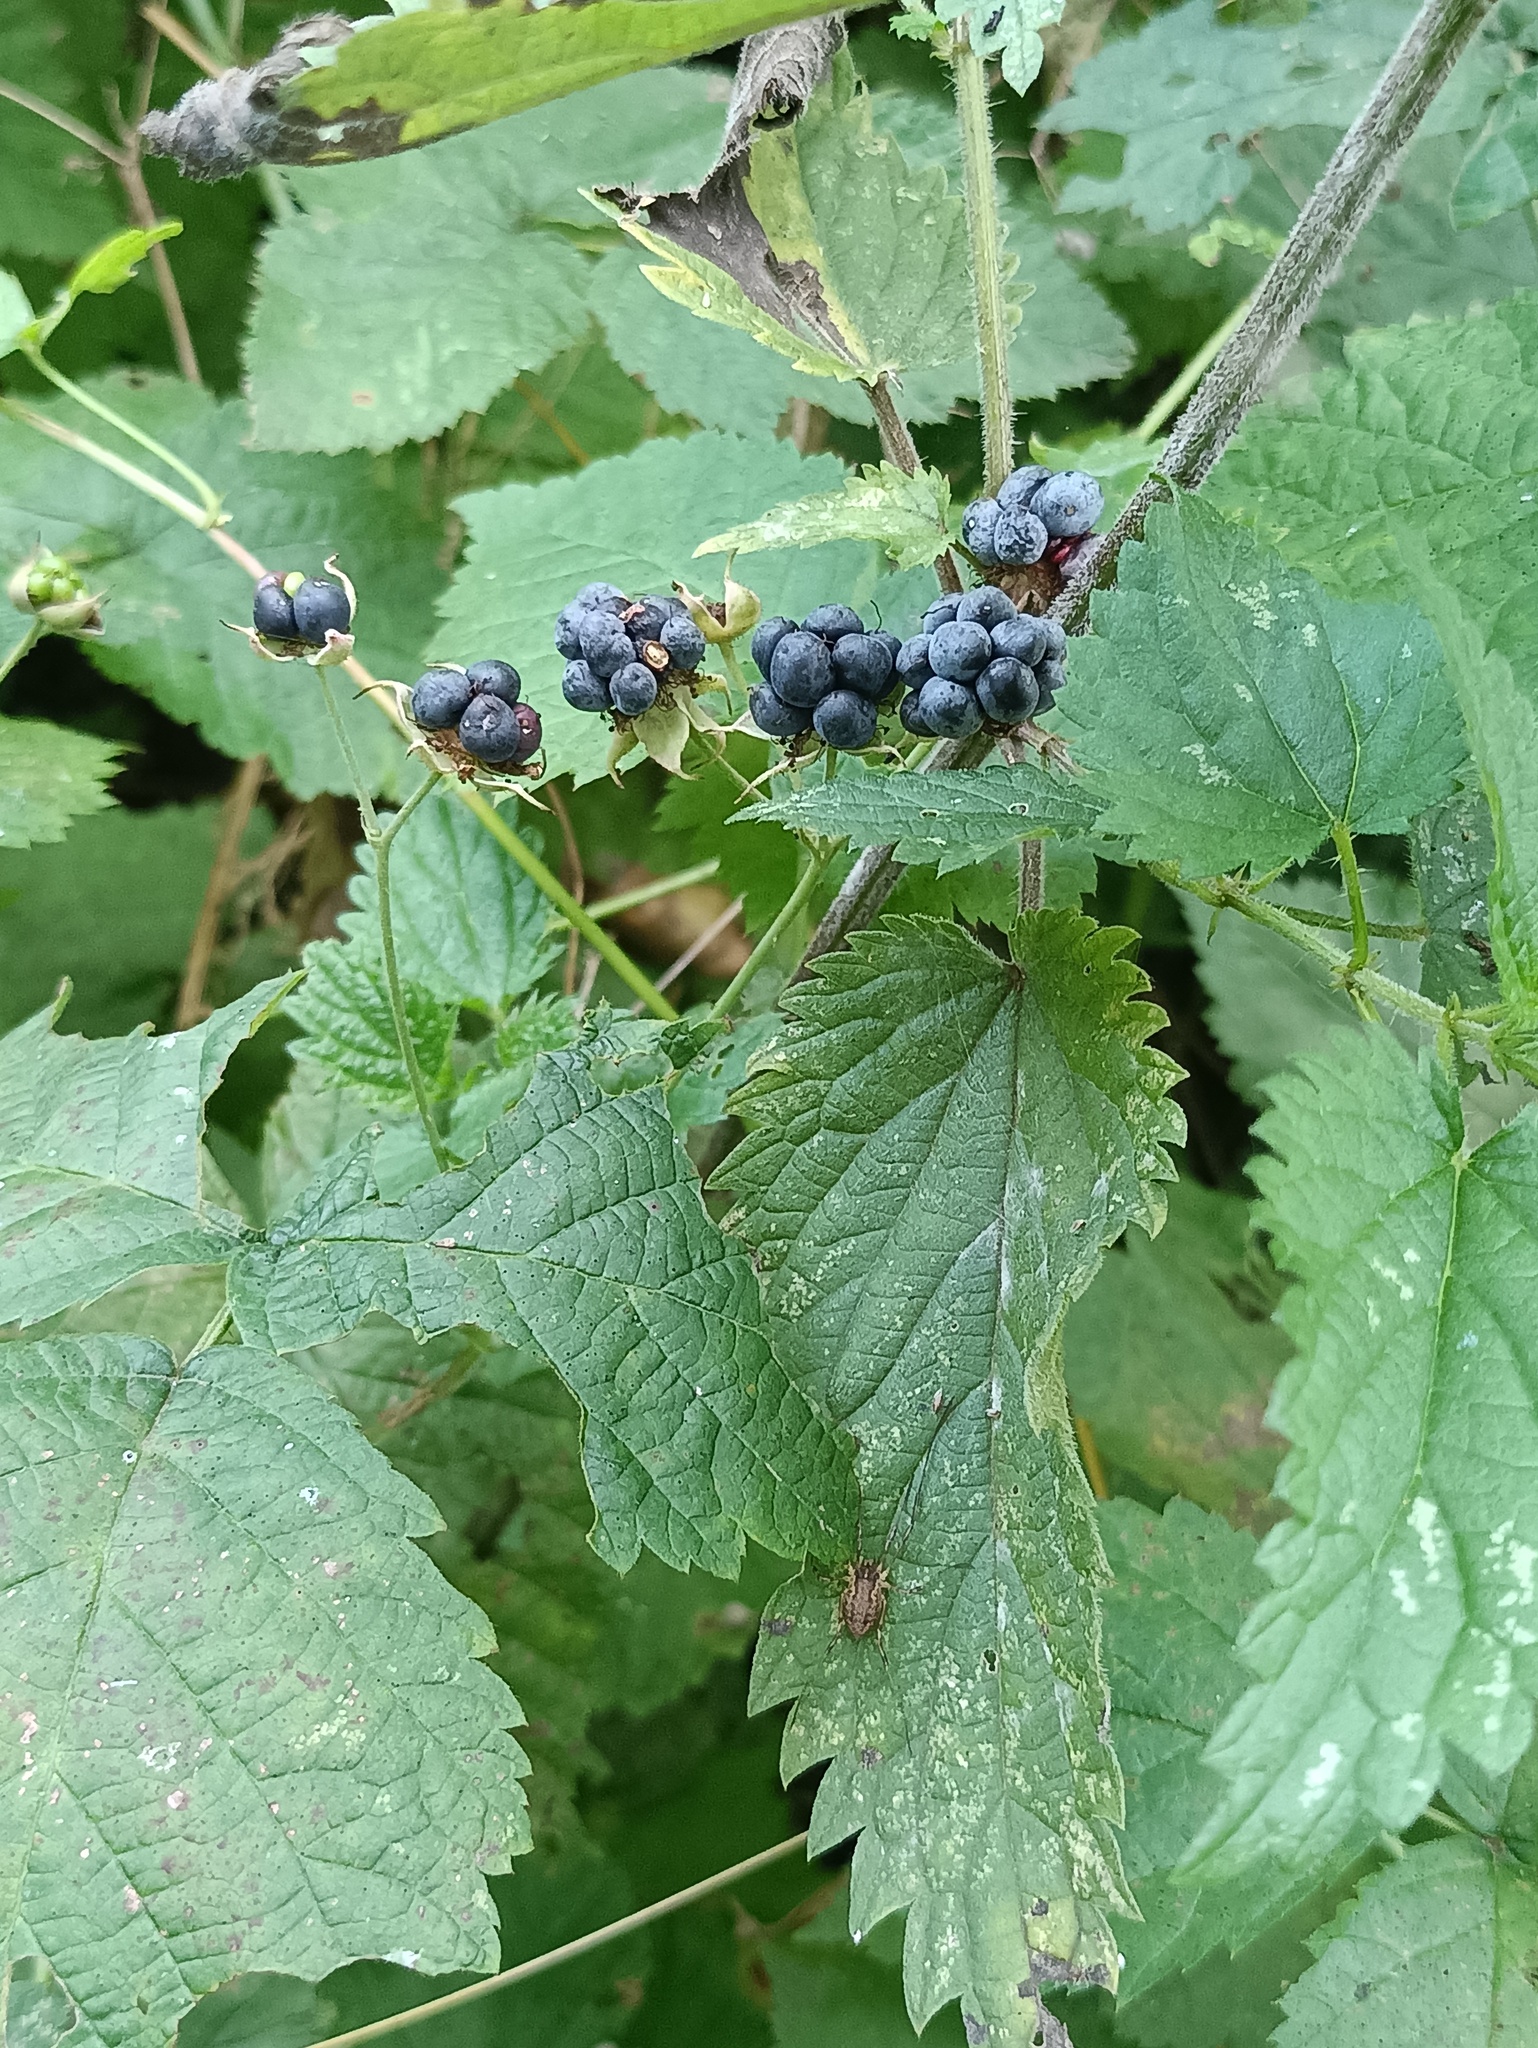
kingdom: Plantae
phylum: Tracheophyta
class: Magnoliopsida
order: Rosales
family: Rosaceae
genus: Rubus
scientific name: Rubus caesius
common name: Dewberry
